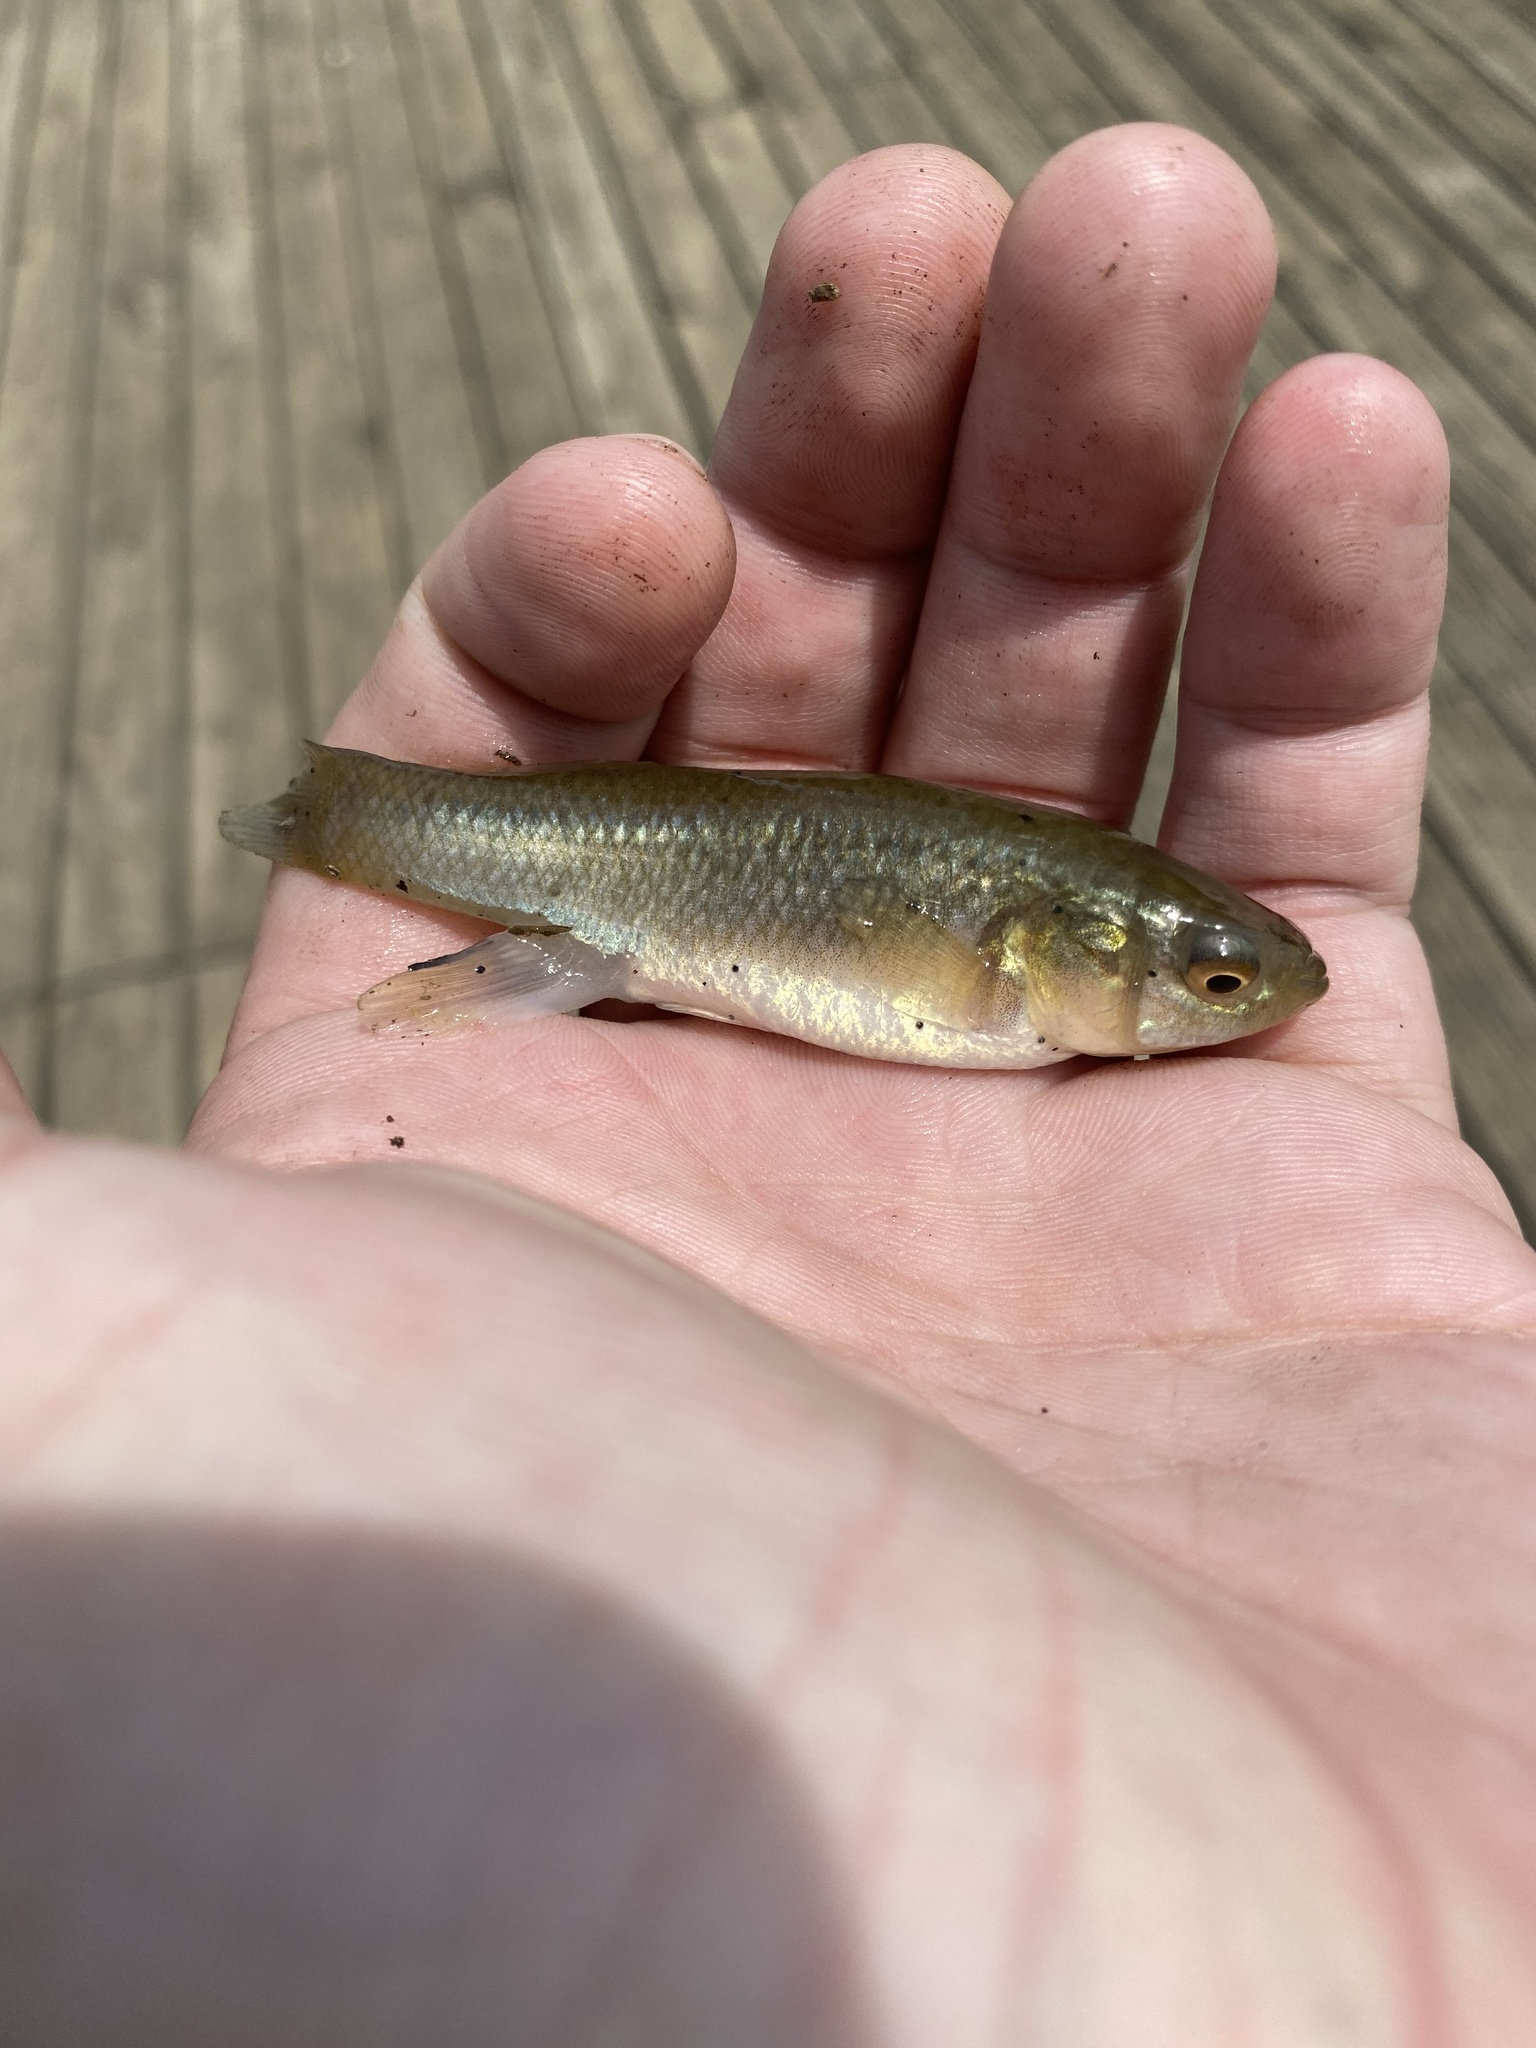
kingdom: Animalia
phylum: Chordata
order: Cyprinodontiformes
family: Fundulidae
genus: Fundulus
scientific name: Fundulus heteroclitus
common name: Mummichog
